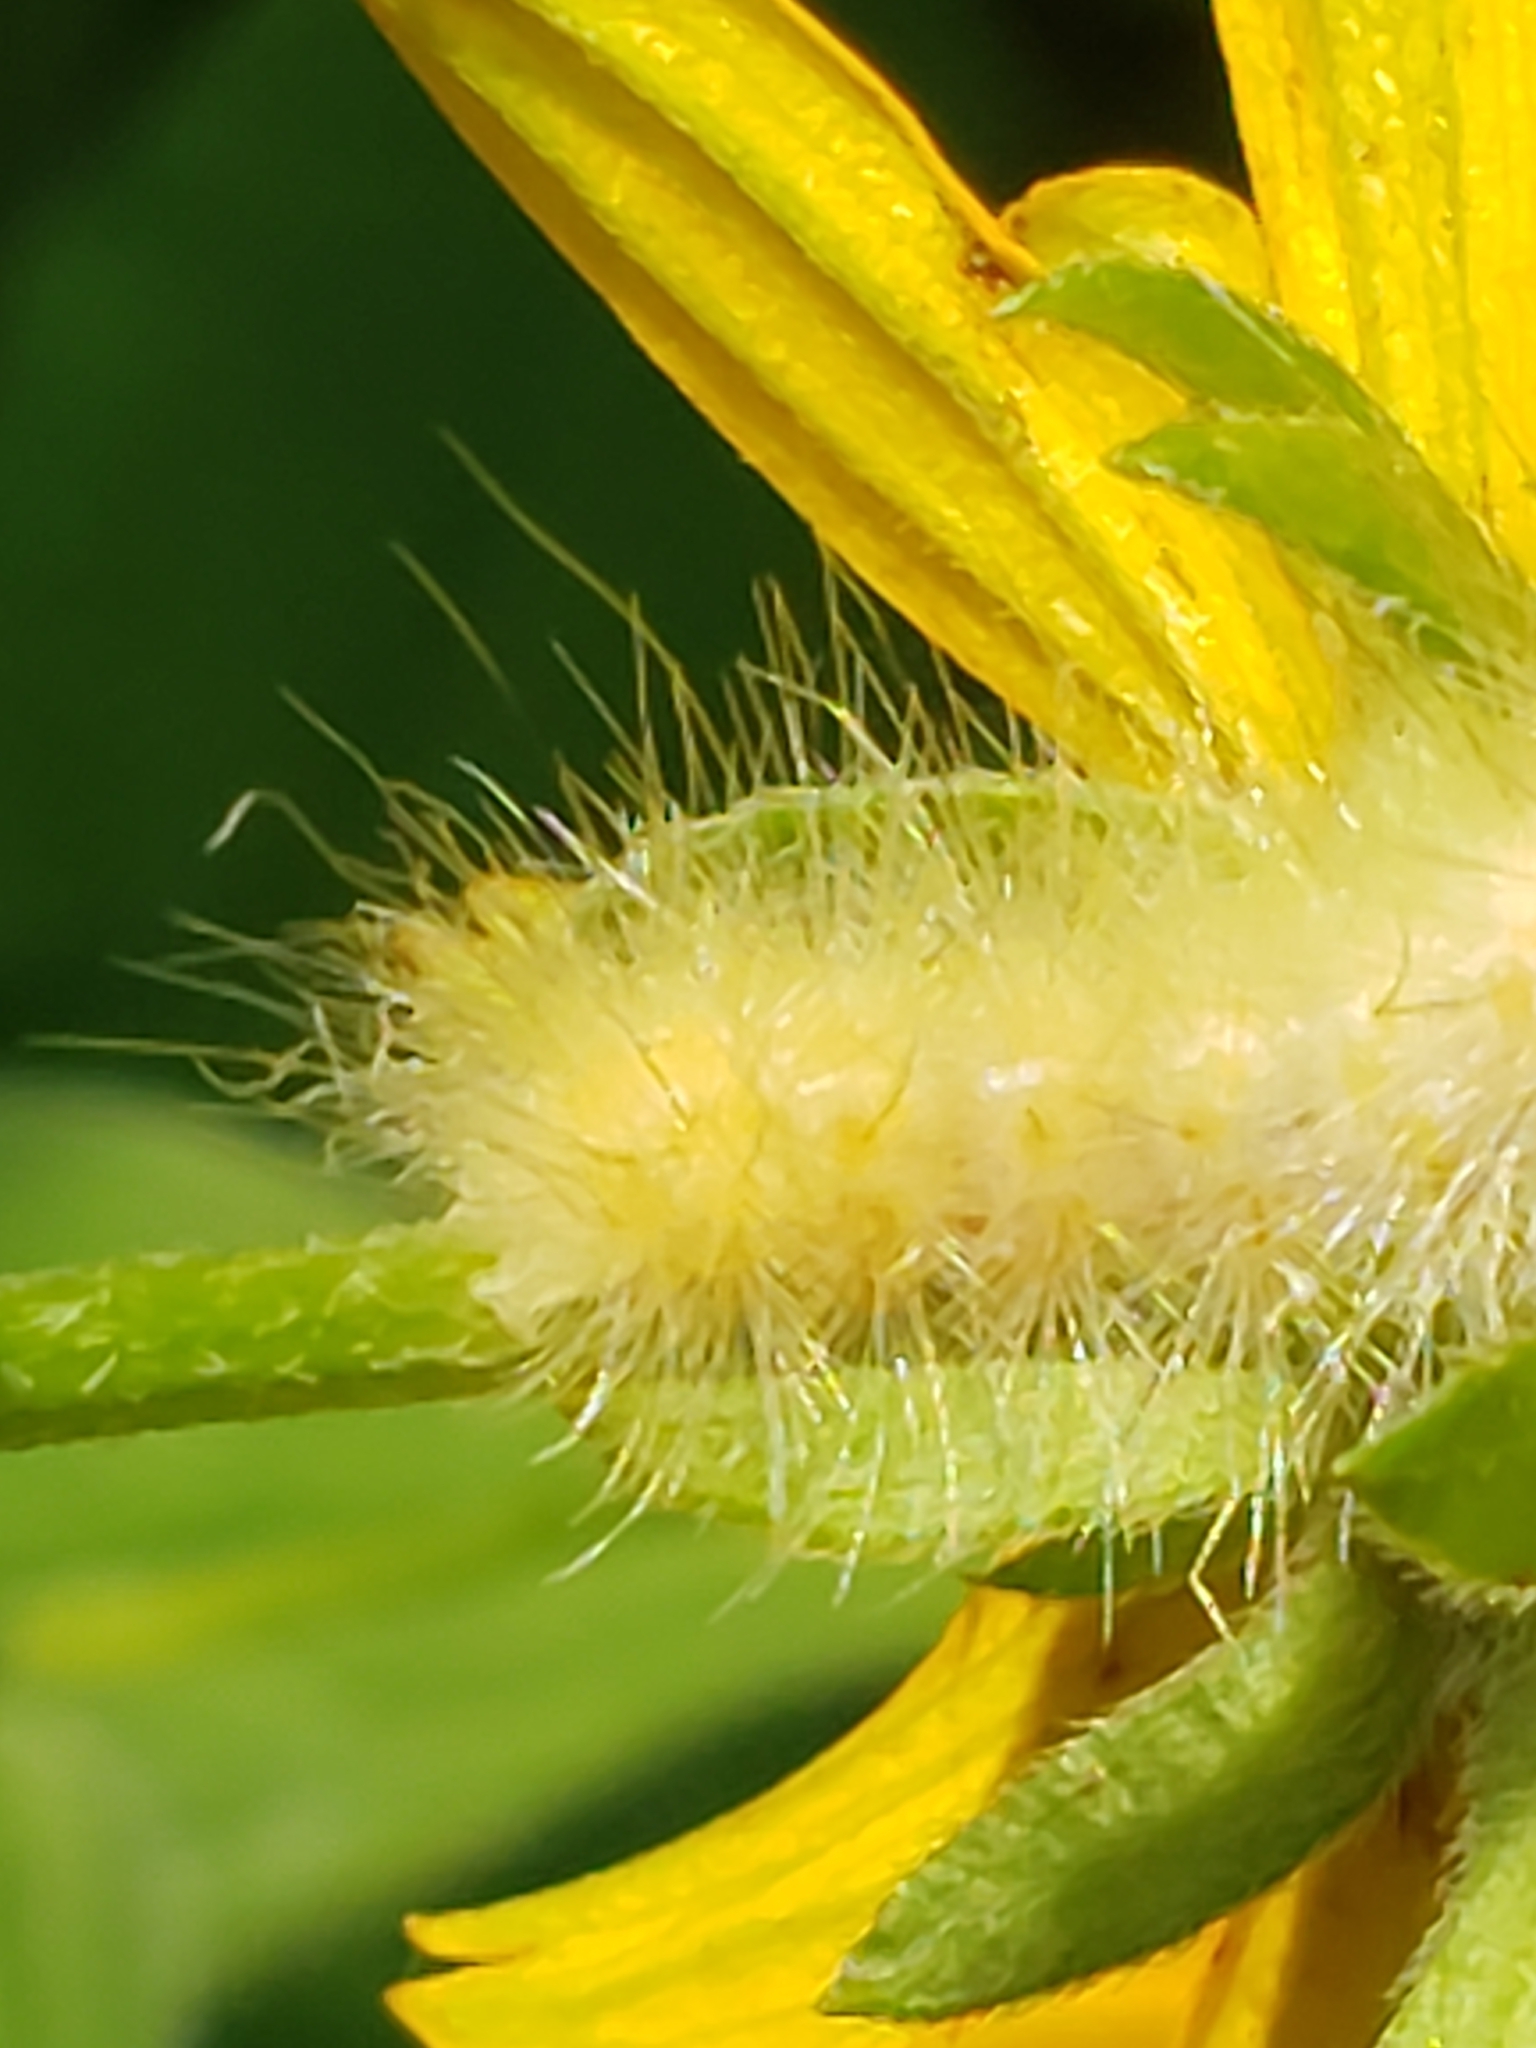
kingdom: Animalia
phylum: Arthropoda
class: Insecta
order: Lepidoptera
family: Erebidae
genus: Spilosoma
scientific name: Spilosoma virginica
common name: Virginia tiger moth
